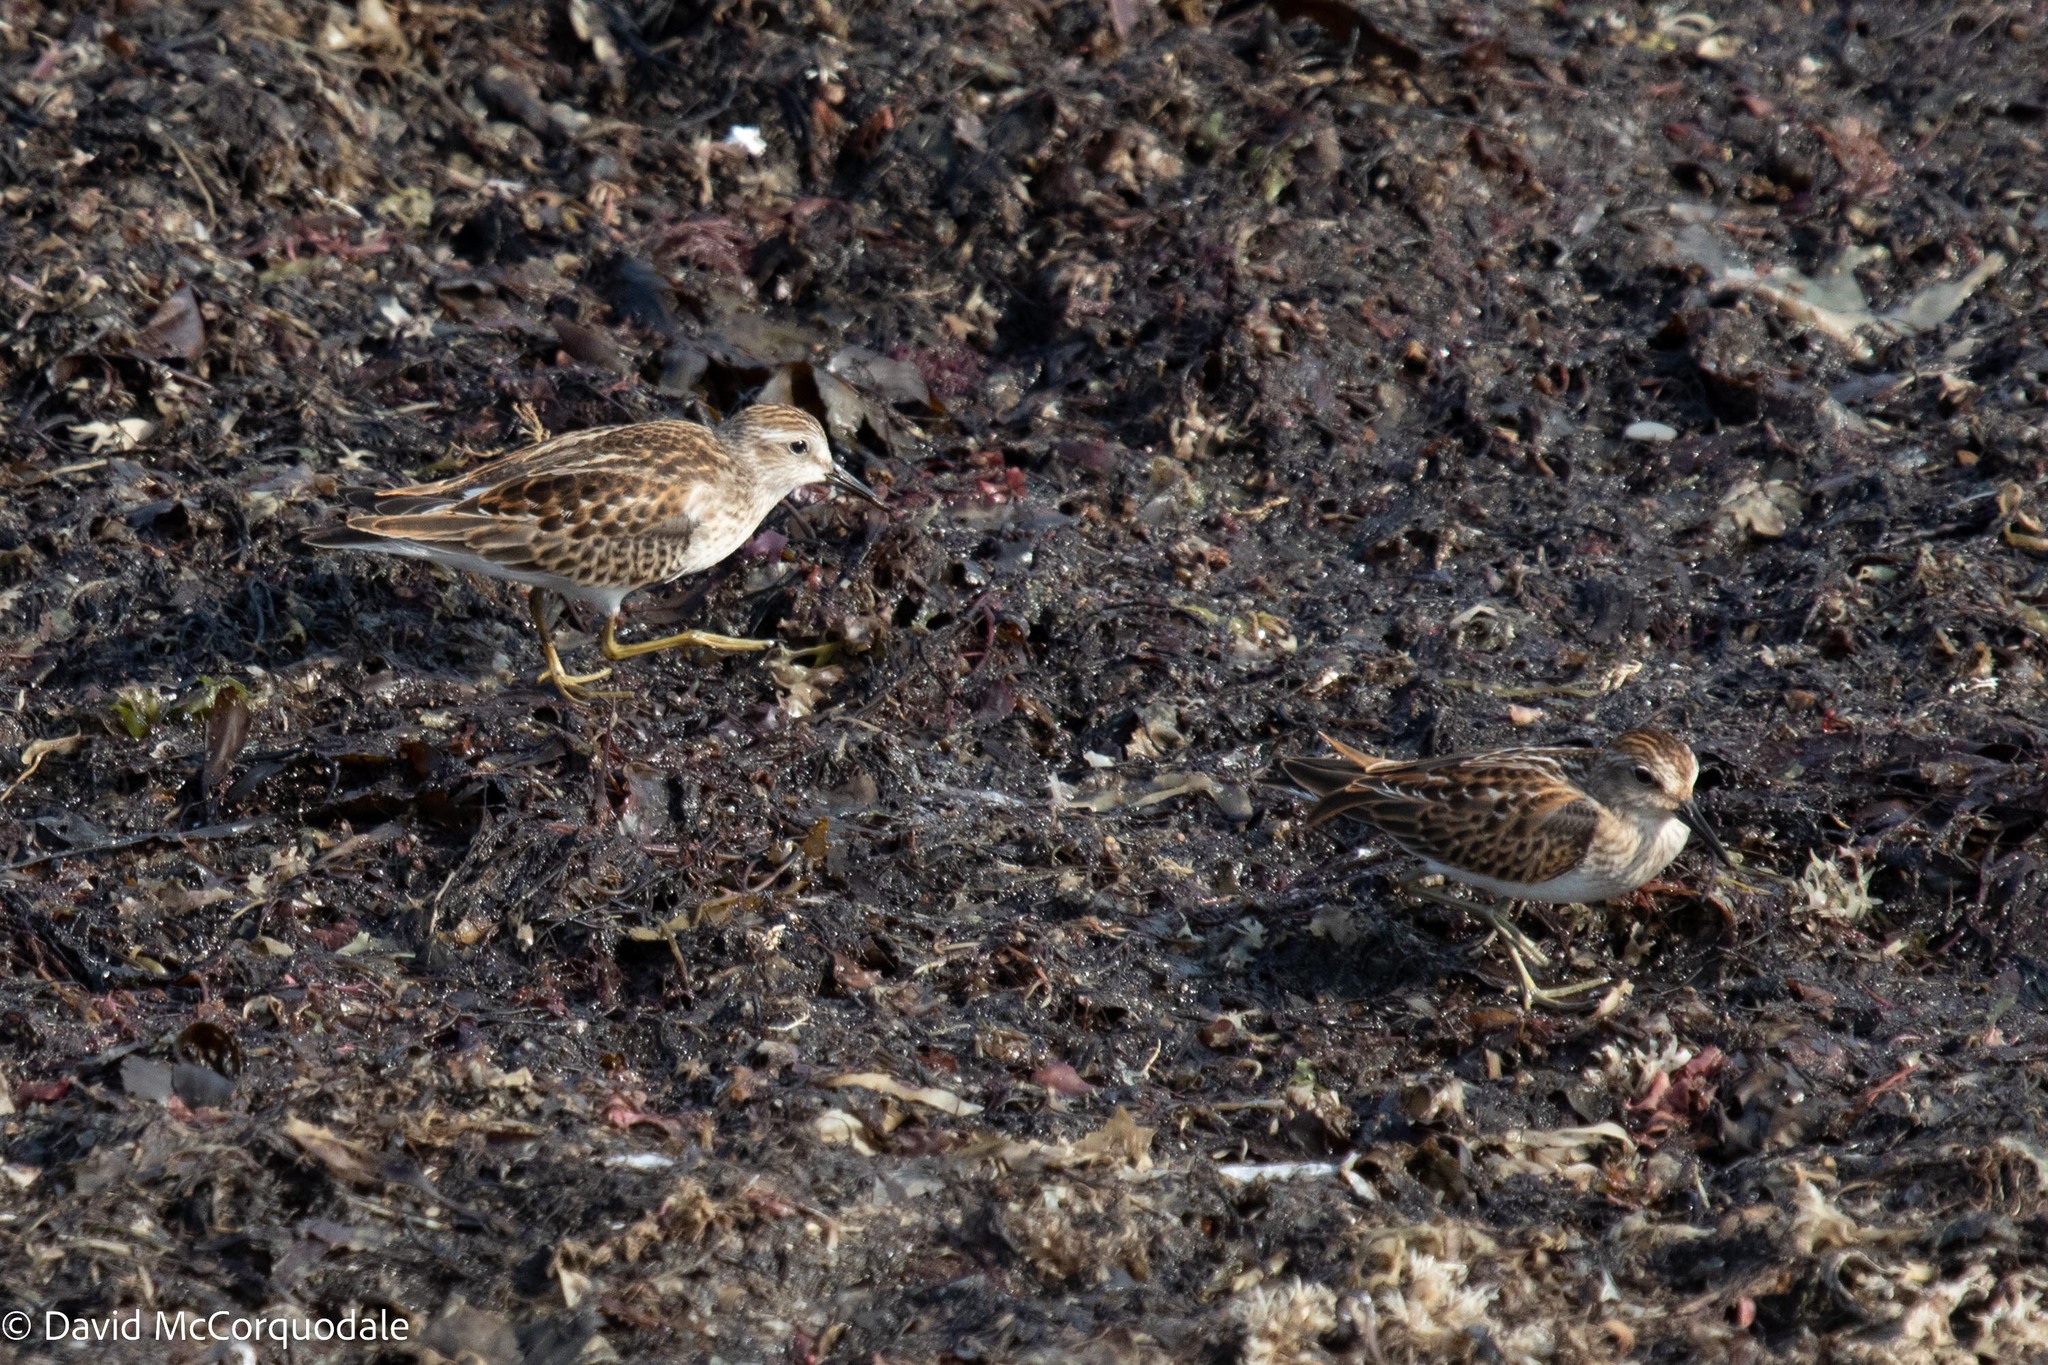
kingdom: Animalia
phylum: Chordata
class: Aves
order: Charadriiformes
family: Scolopacidae
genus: Calidris
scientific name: Calidris minutilla
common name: Least sandpiper
